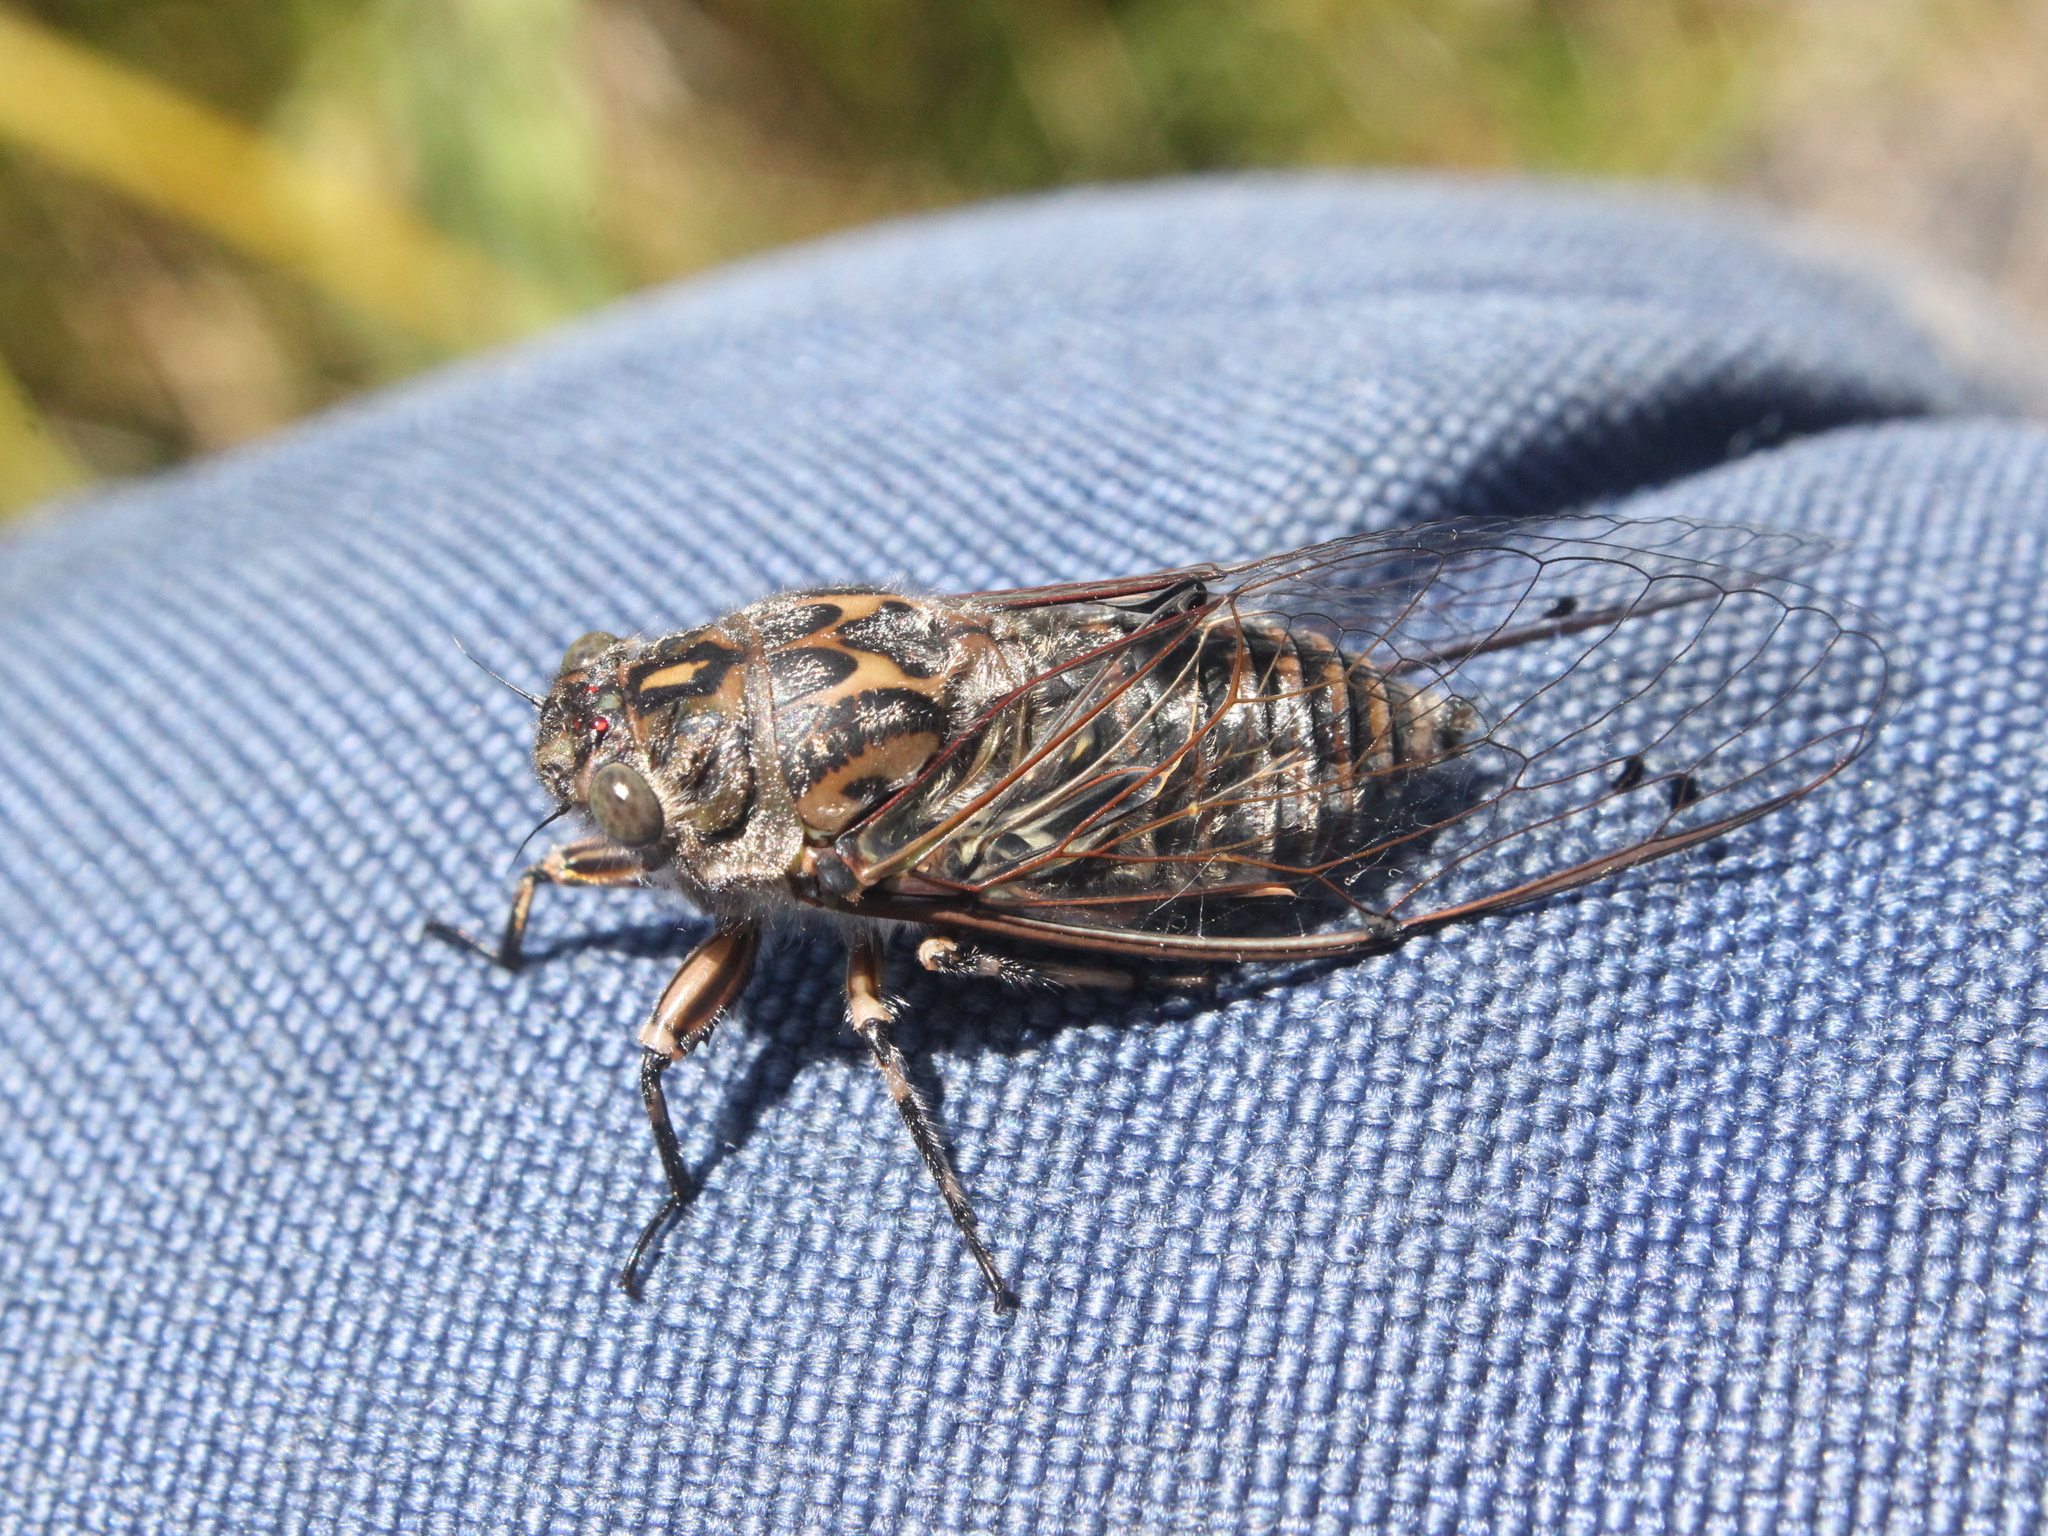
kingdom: Animalia
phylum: Arthropoda
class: Insecta
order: Hemiptera
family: Cicadidae
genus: Amphipsalta
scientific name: Amphipsalta cingulata
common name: Clapping cicada
